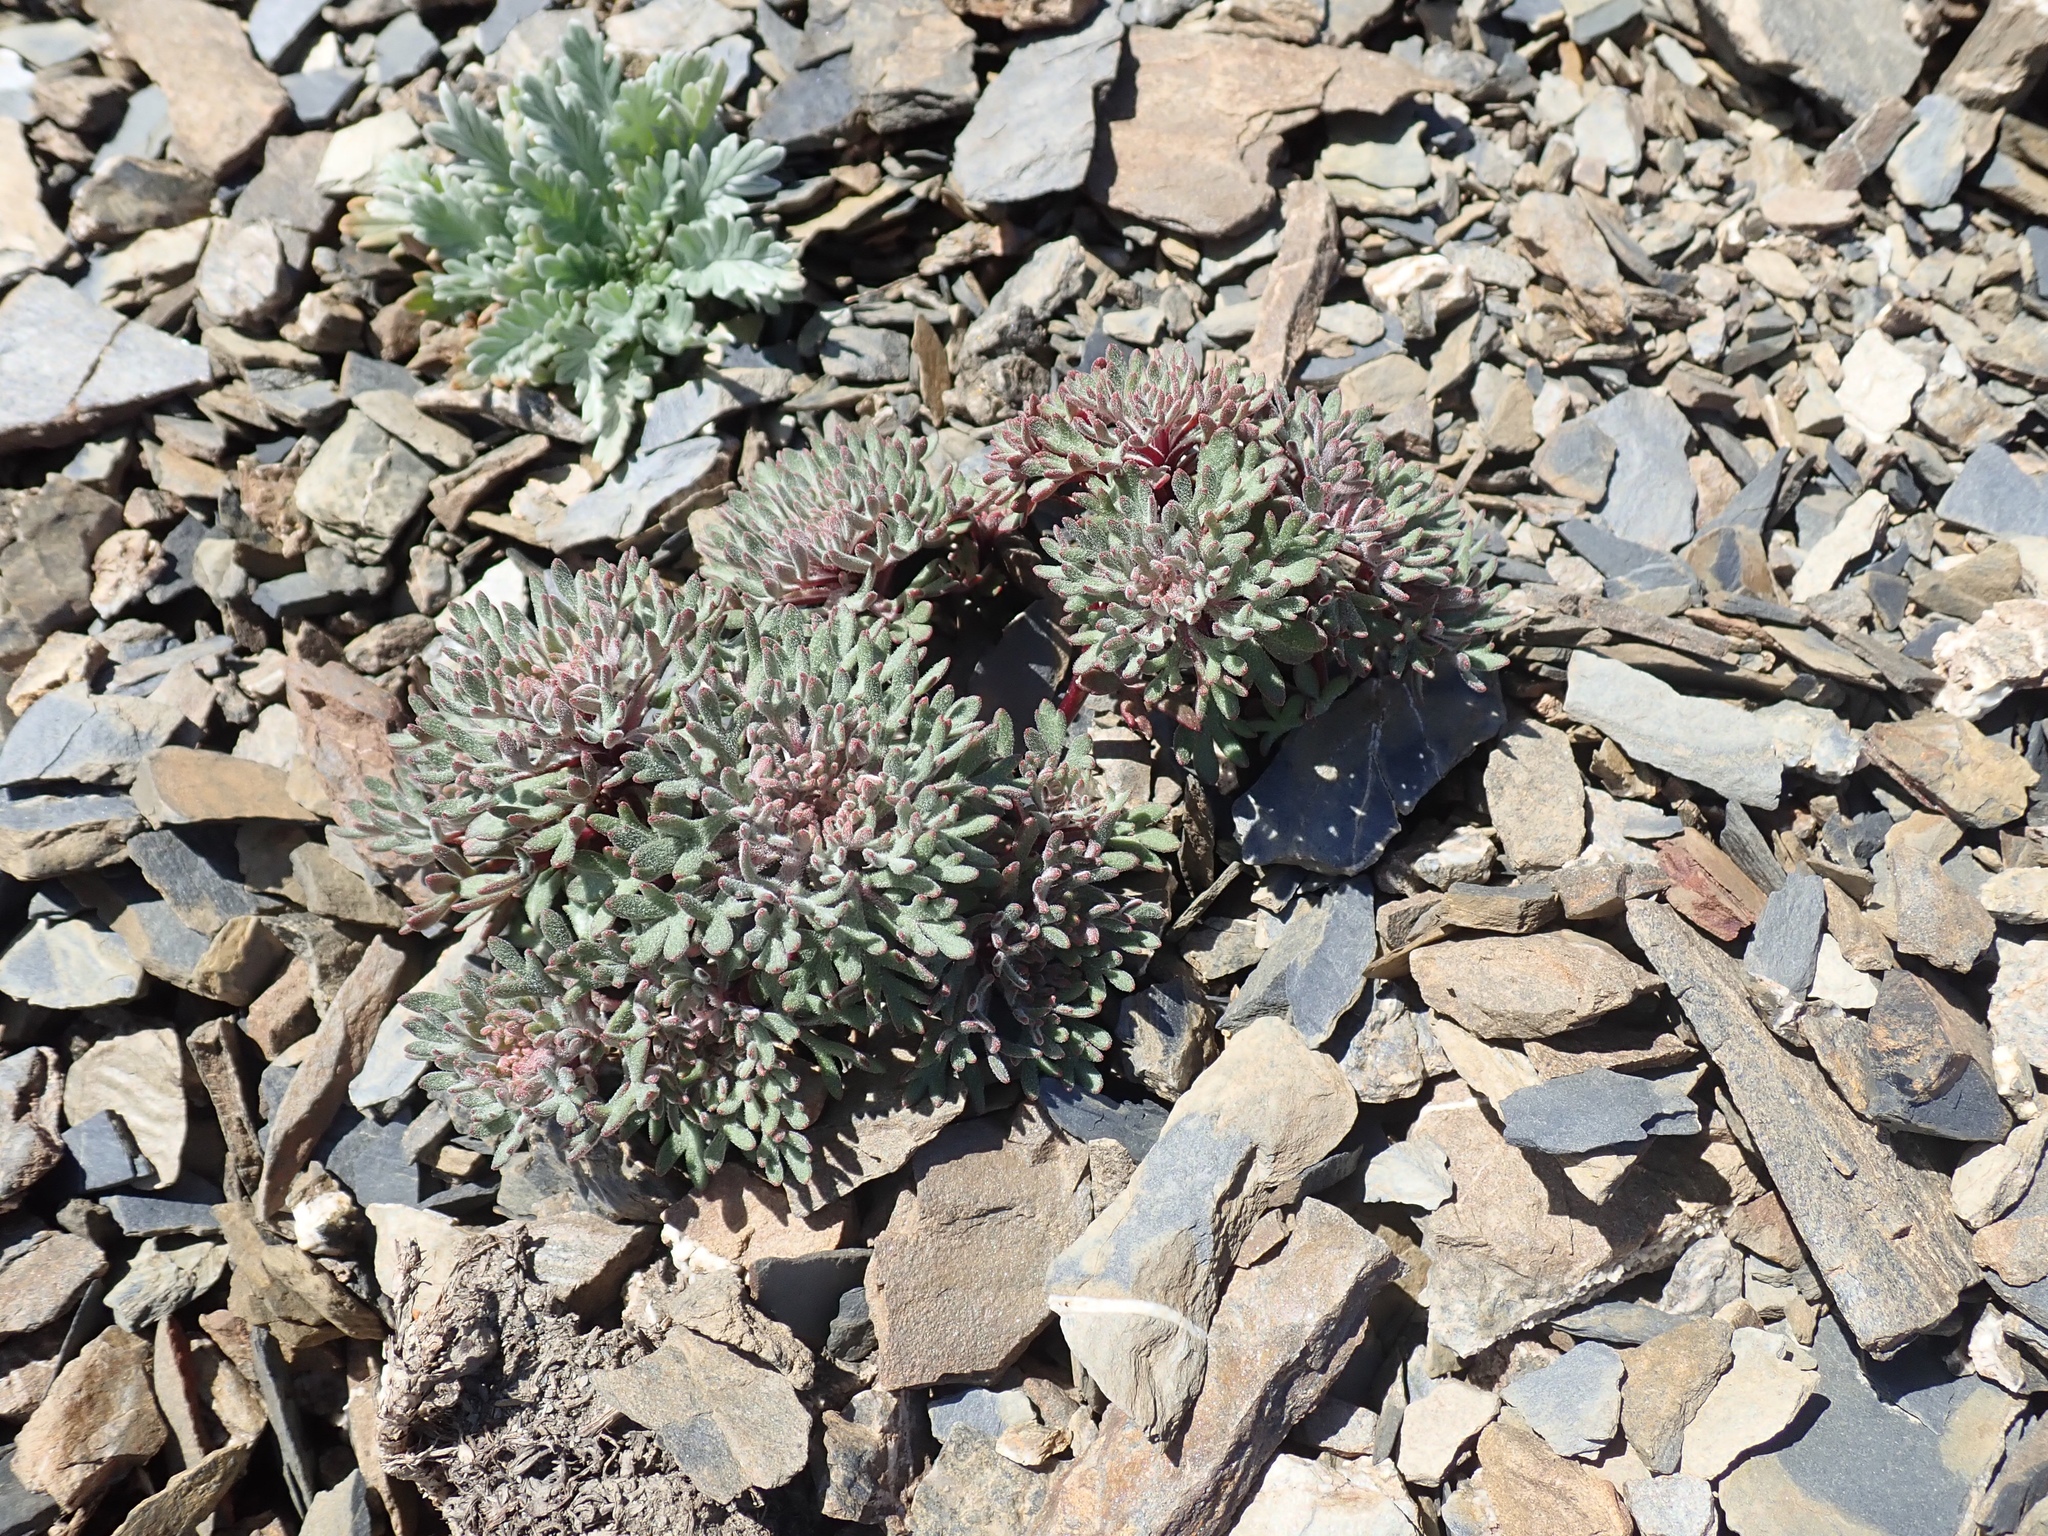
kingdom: Plantae
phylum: Tracheophyta
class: Magnoliopsida
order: Ericales
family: Polemoniaceae
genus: Collomia
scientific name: Collomia larsenii
